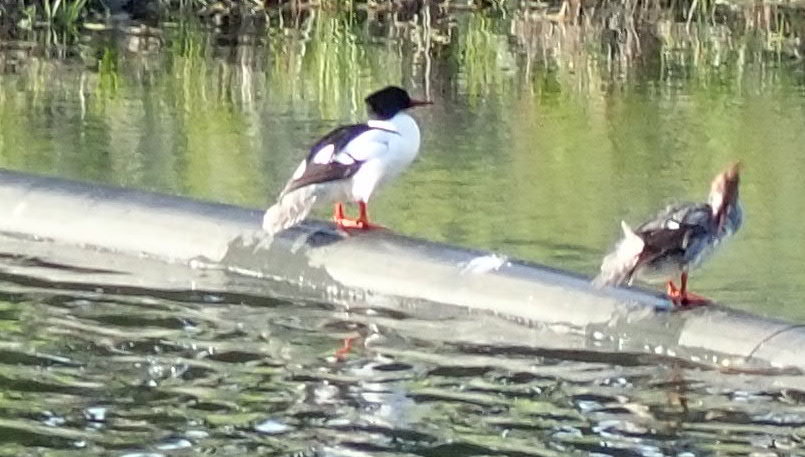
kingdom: Animalia
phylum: Chordata
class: Aves
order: Anseriformes
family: Anatidae
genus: Mergus
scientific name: Mergus merganser
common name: Common merganser
